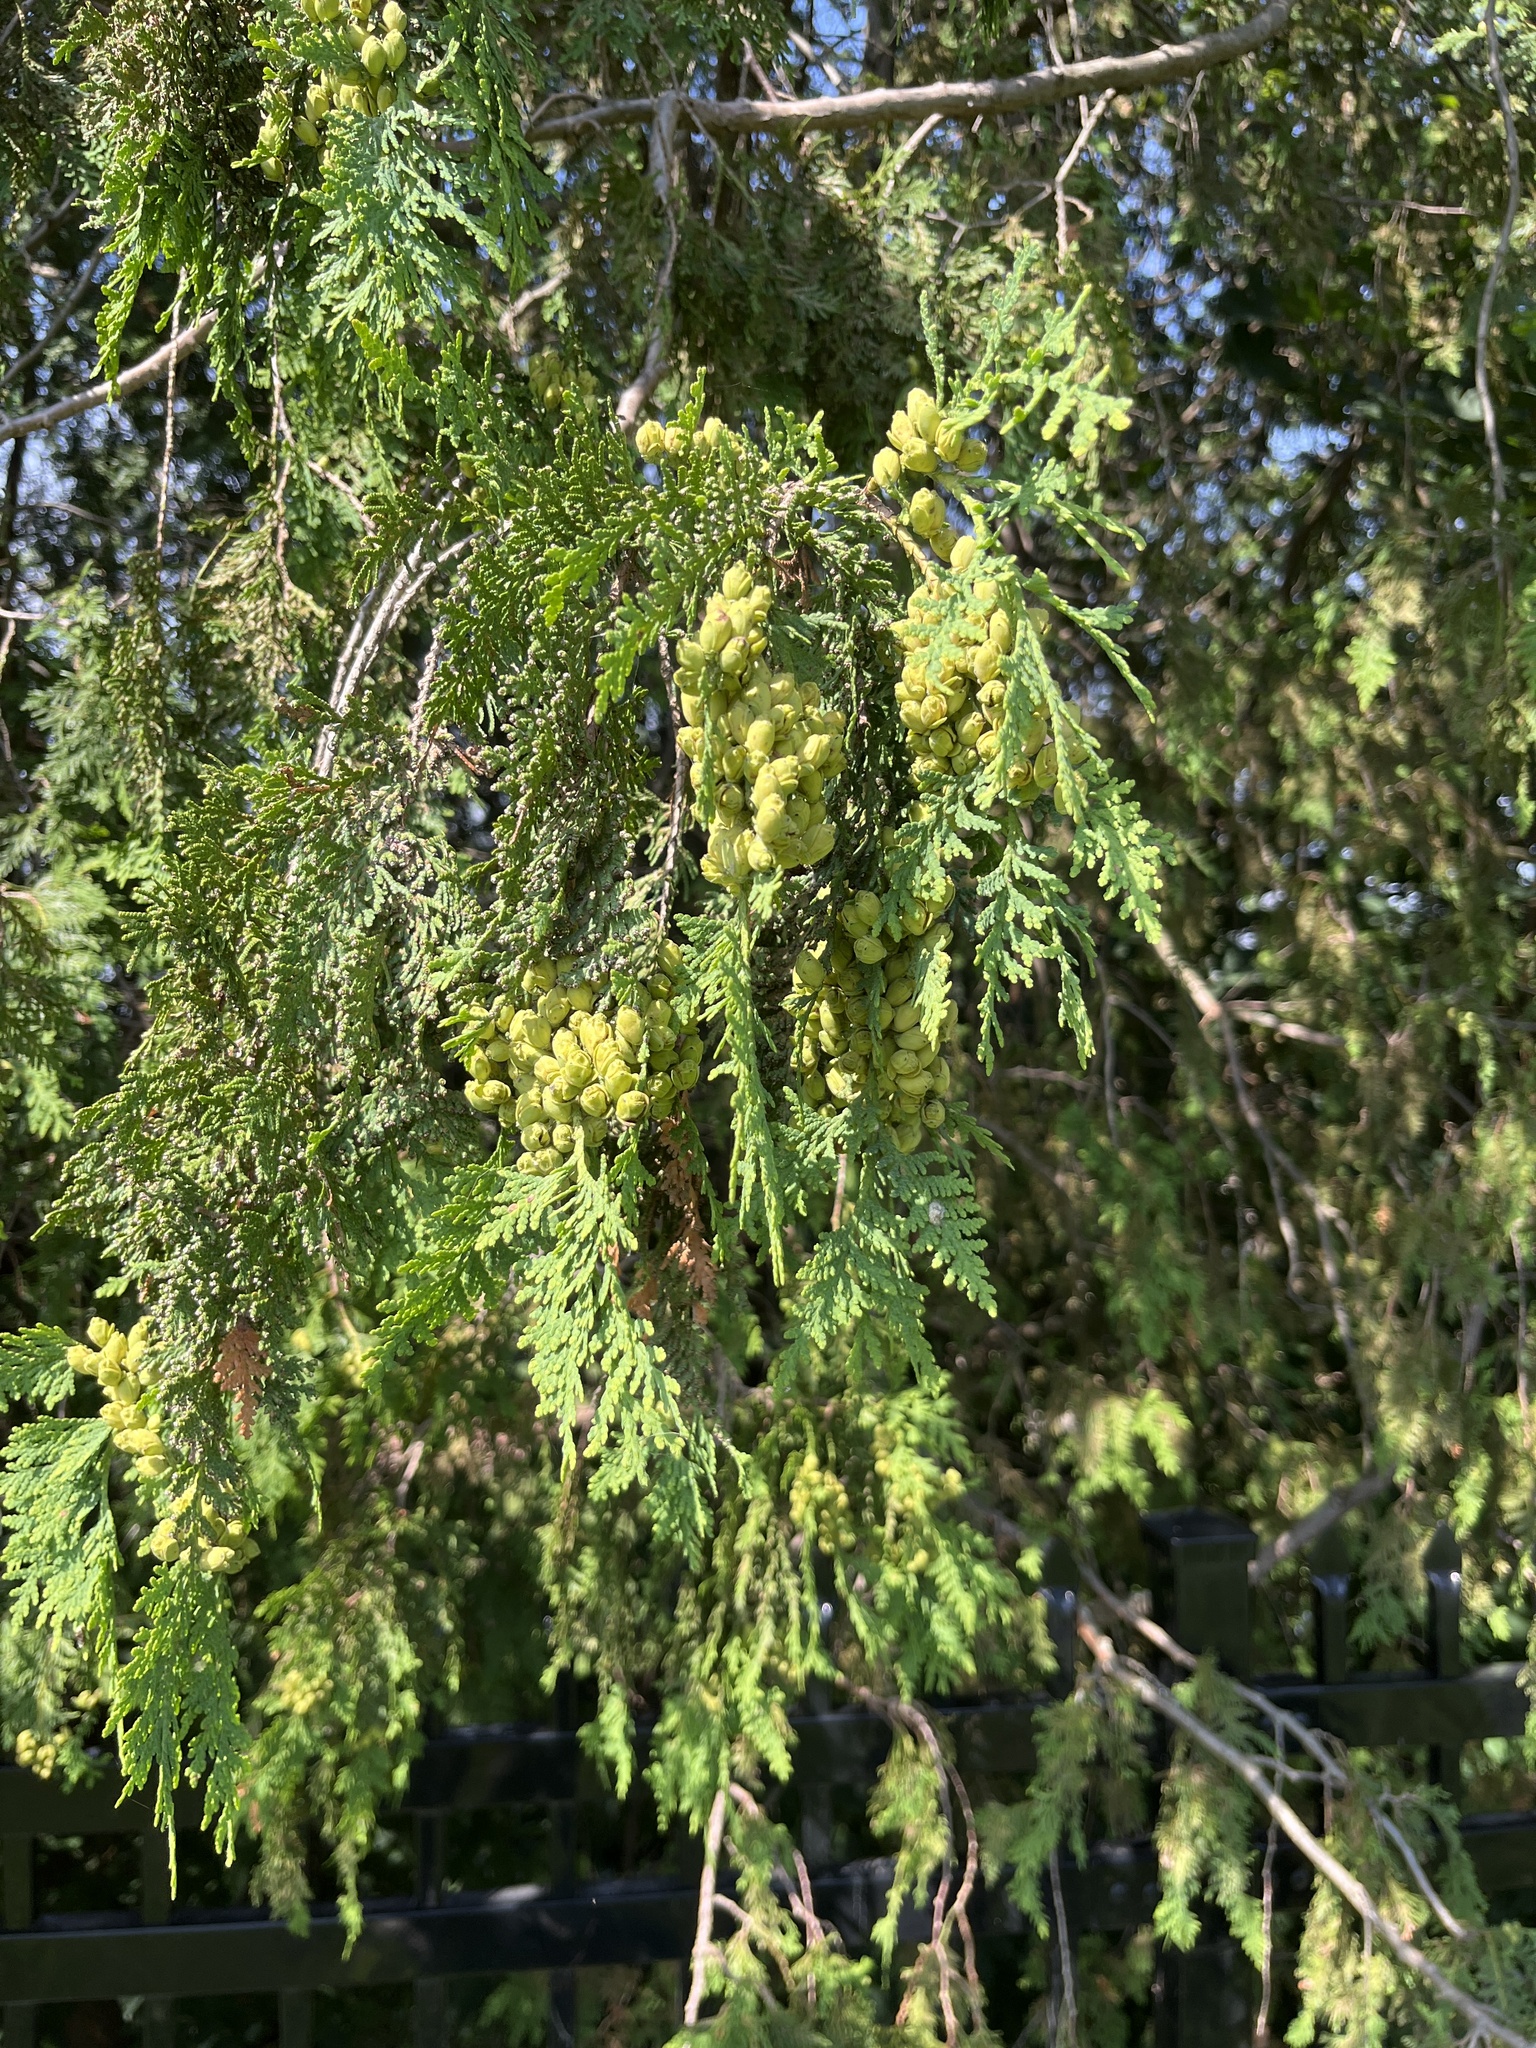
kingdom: Plantae
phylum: Tracheophyta
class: Pinopsida
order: Pinales
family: Cupressaceae
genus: Thuja
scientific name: Thuja occidentalis
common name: Northern white-cedar
